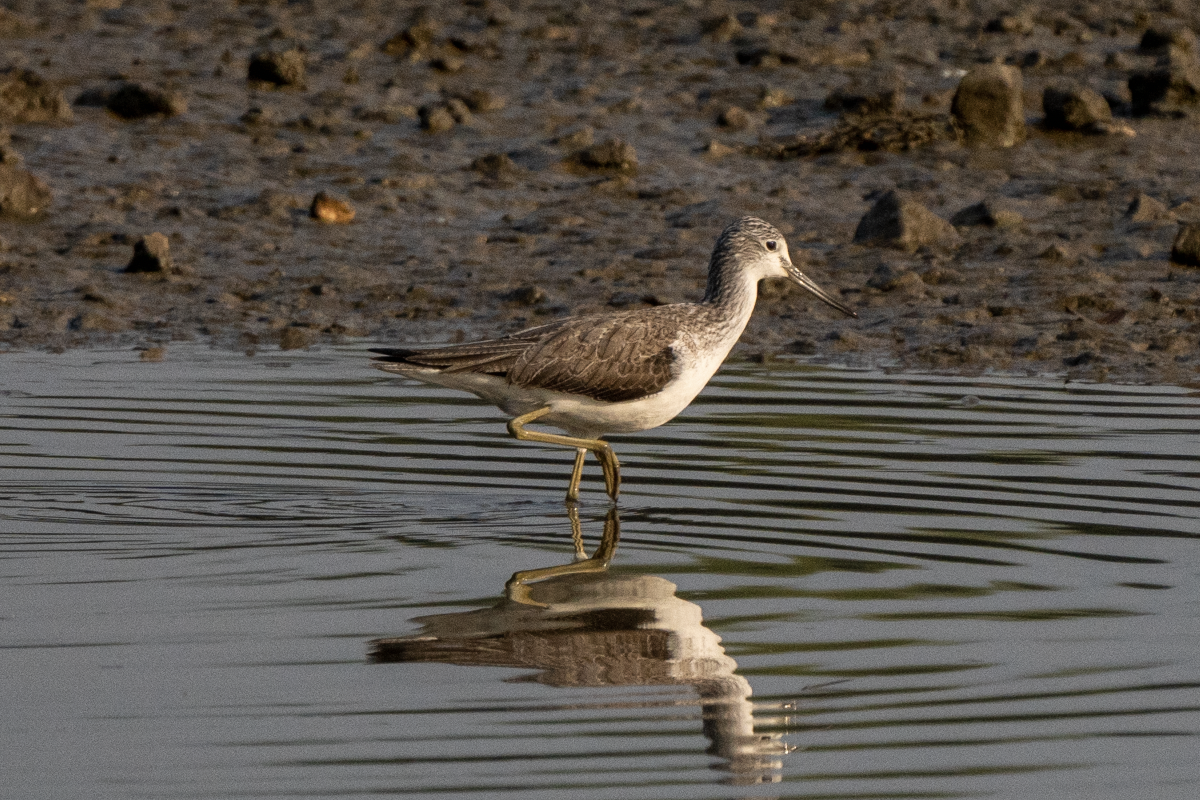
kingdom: Animalia
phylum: Chordata
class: Aves
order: Charadriiformes
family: Scolopacidae
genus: Tringa
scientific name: Tringa nebularia
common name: Common greenshank
